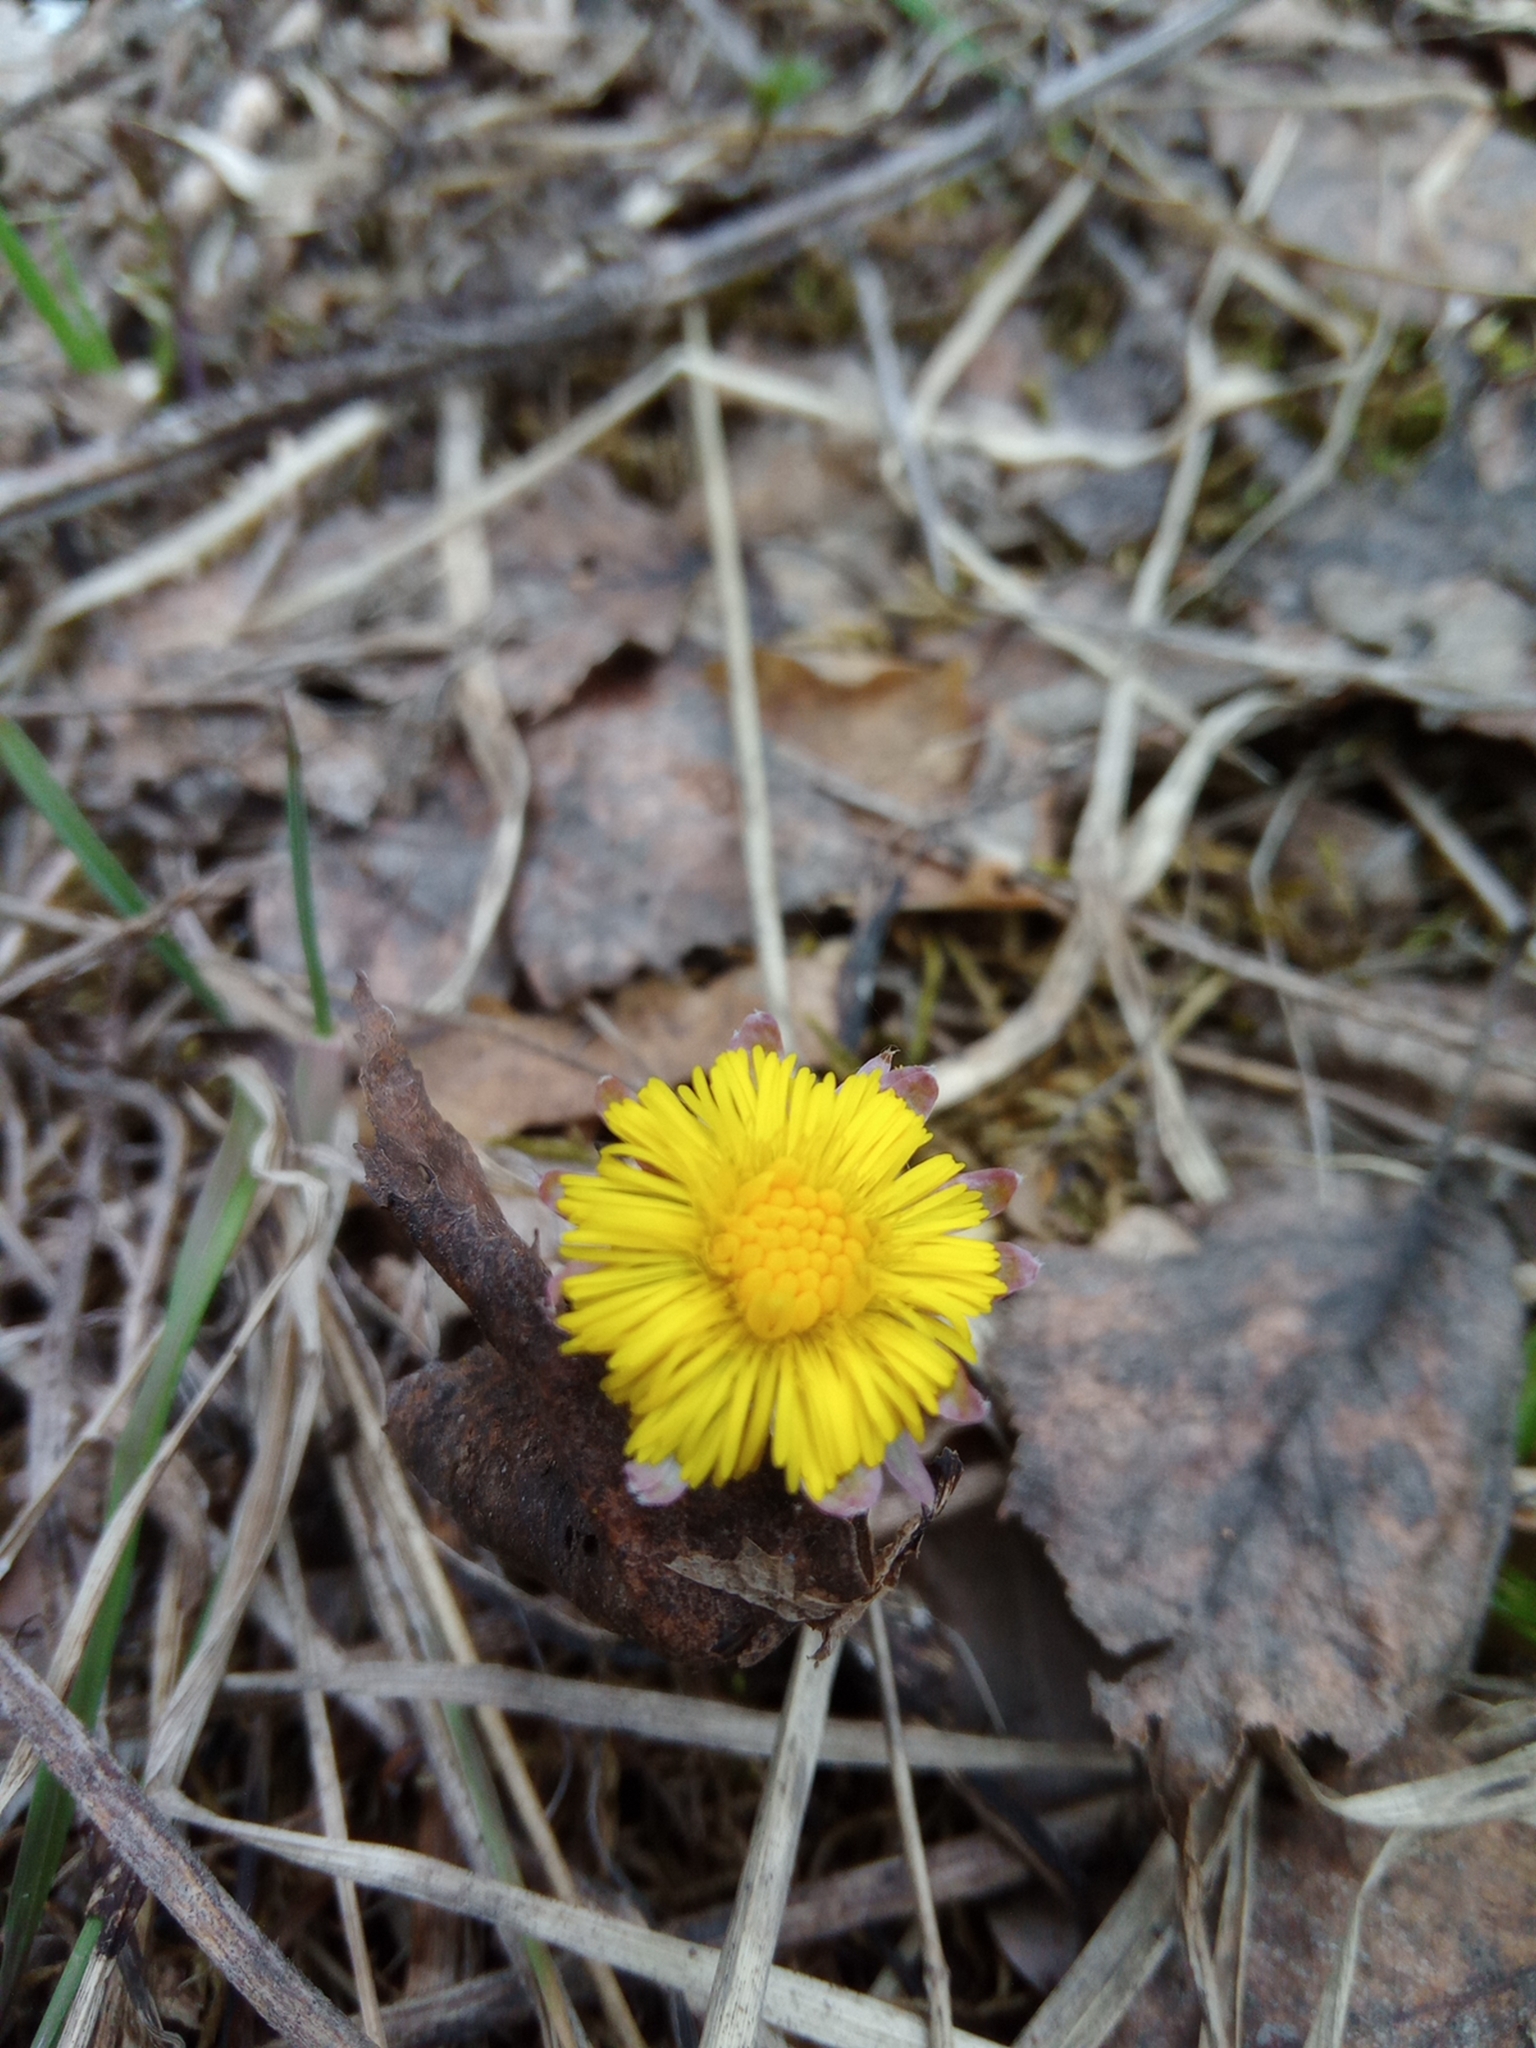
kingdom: Plantae
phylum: Tracheophyta
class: Magnoliopsida
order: Asterales
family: Asteraceae
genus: Tussilago
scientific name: Tussilago farfara
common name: Coltsfoot
